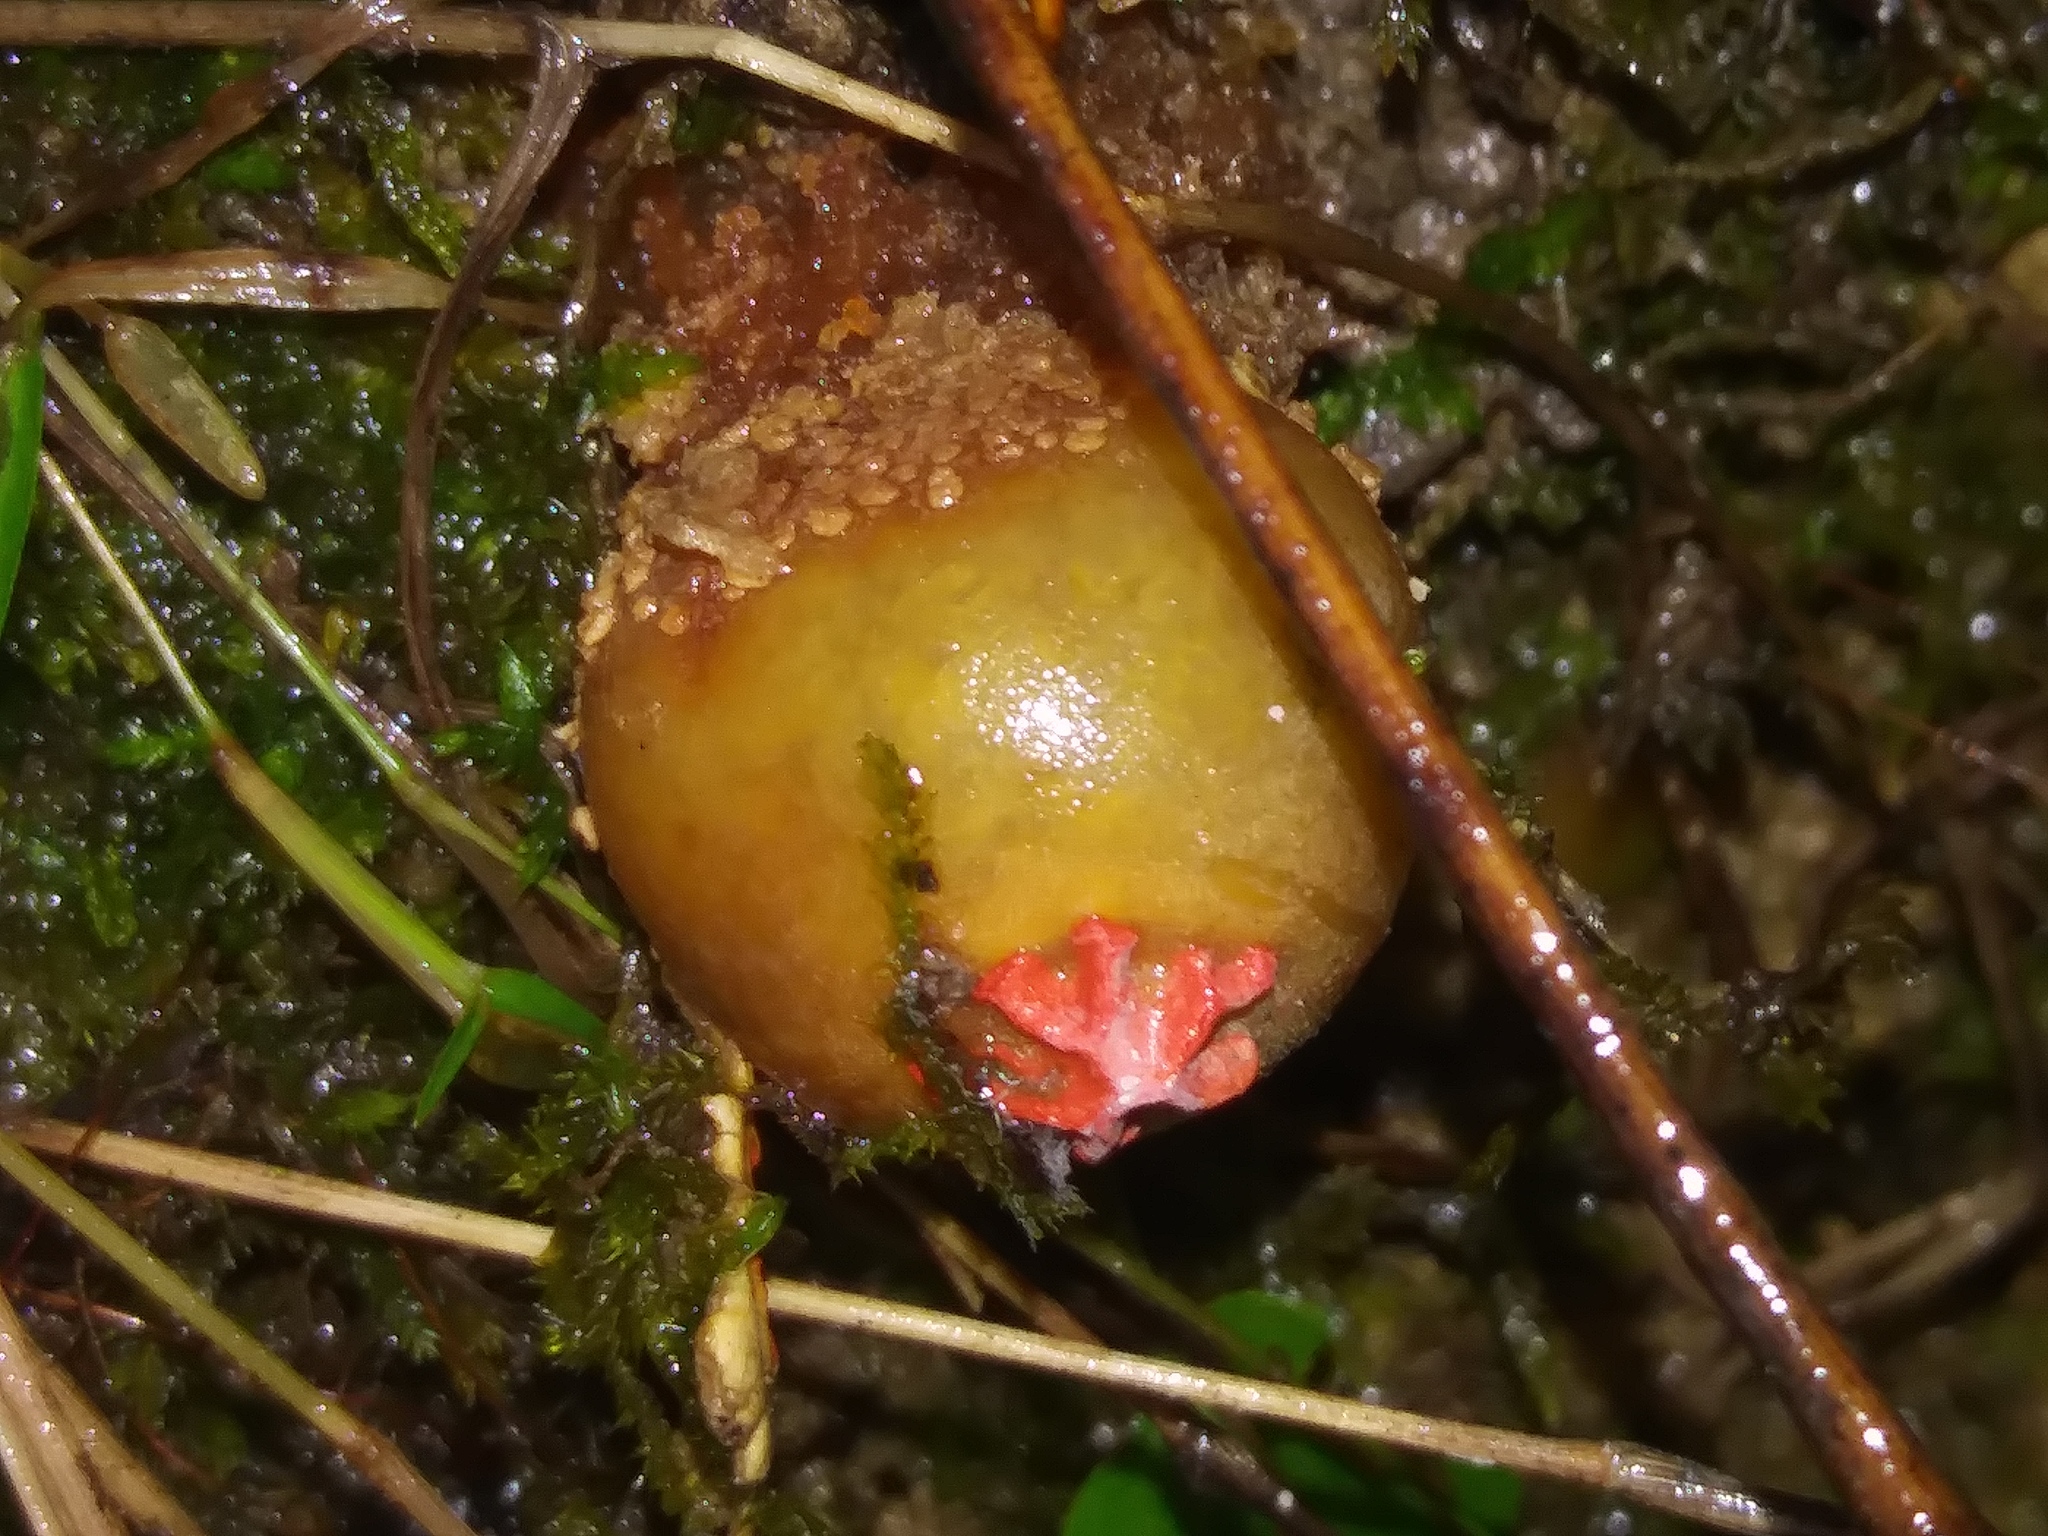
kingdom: Fungi
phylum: Basidiomycota
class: Agaricomycetes
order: Boletales
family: Calostomataceae
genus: Calostoma
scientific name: Calostoma lutescens
